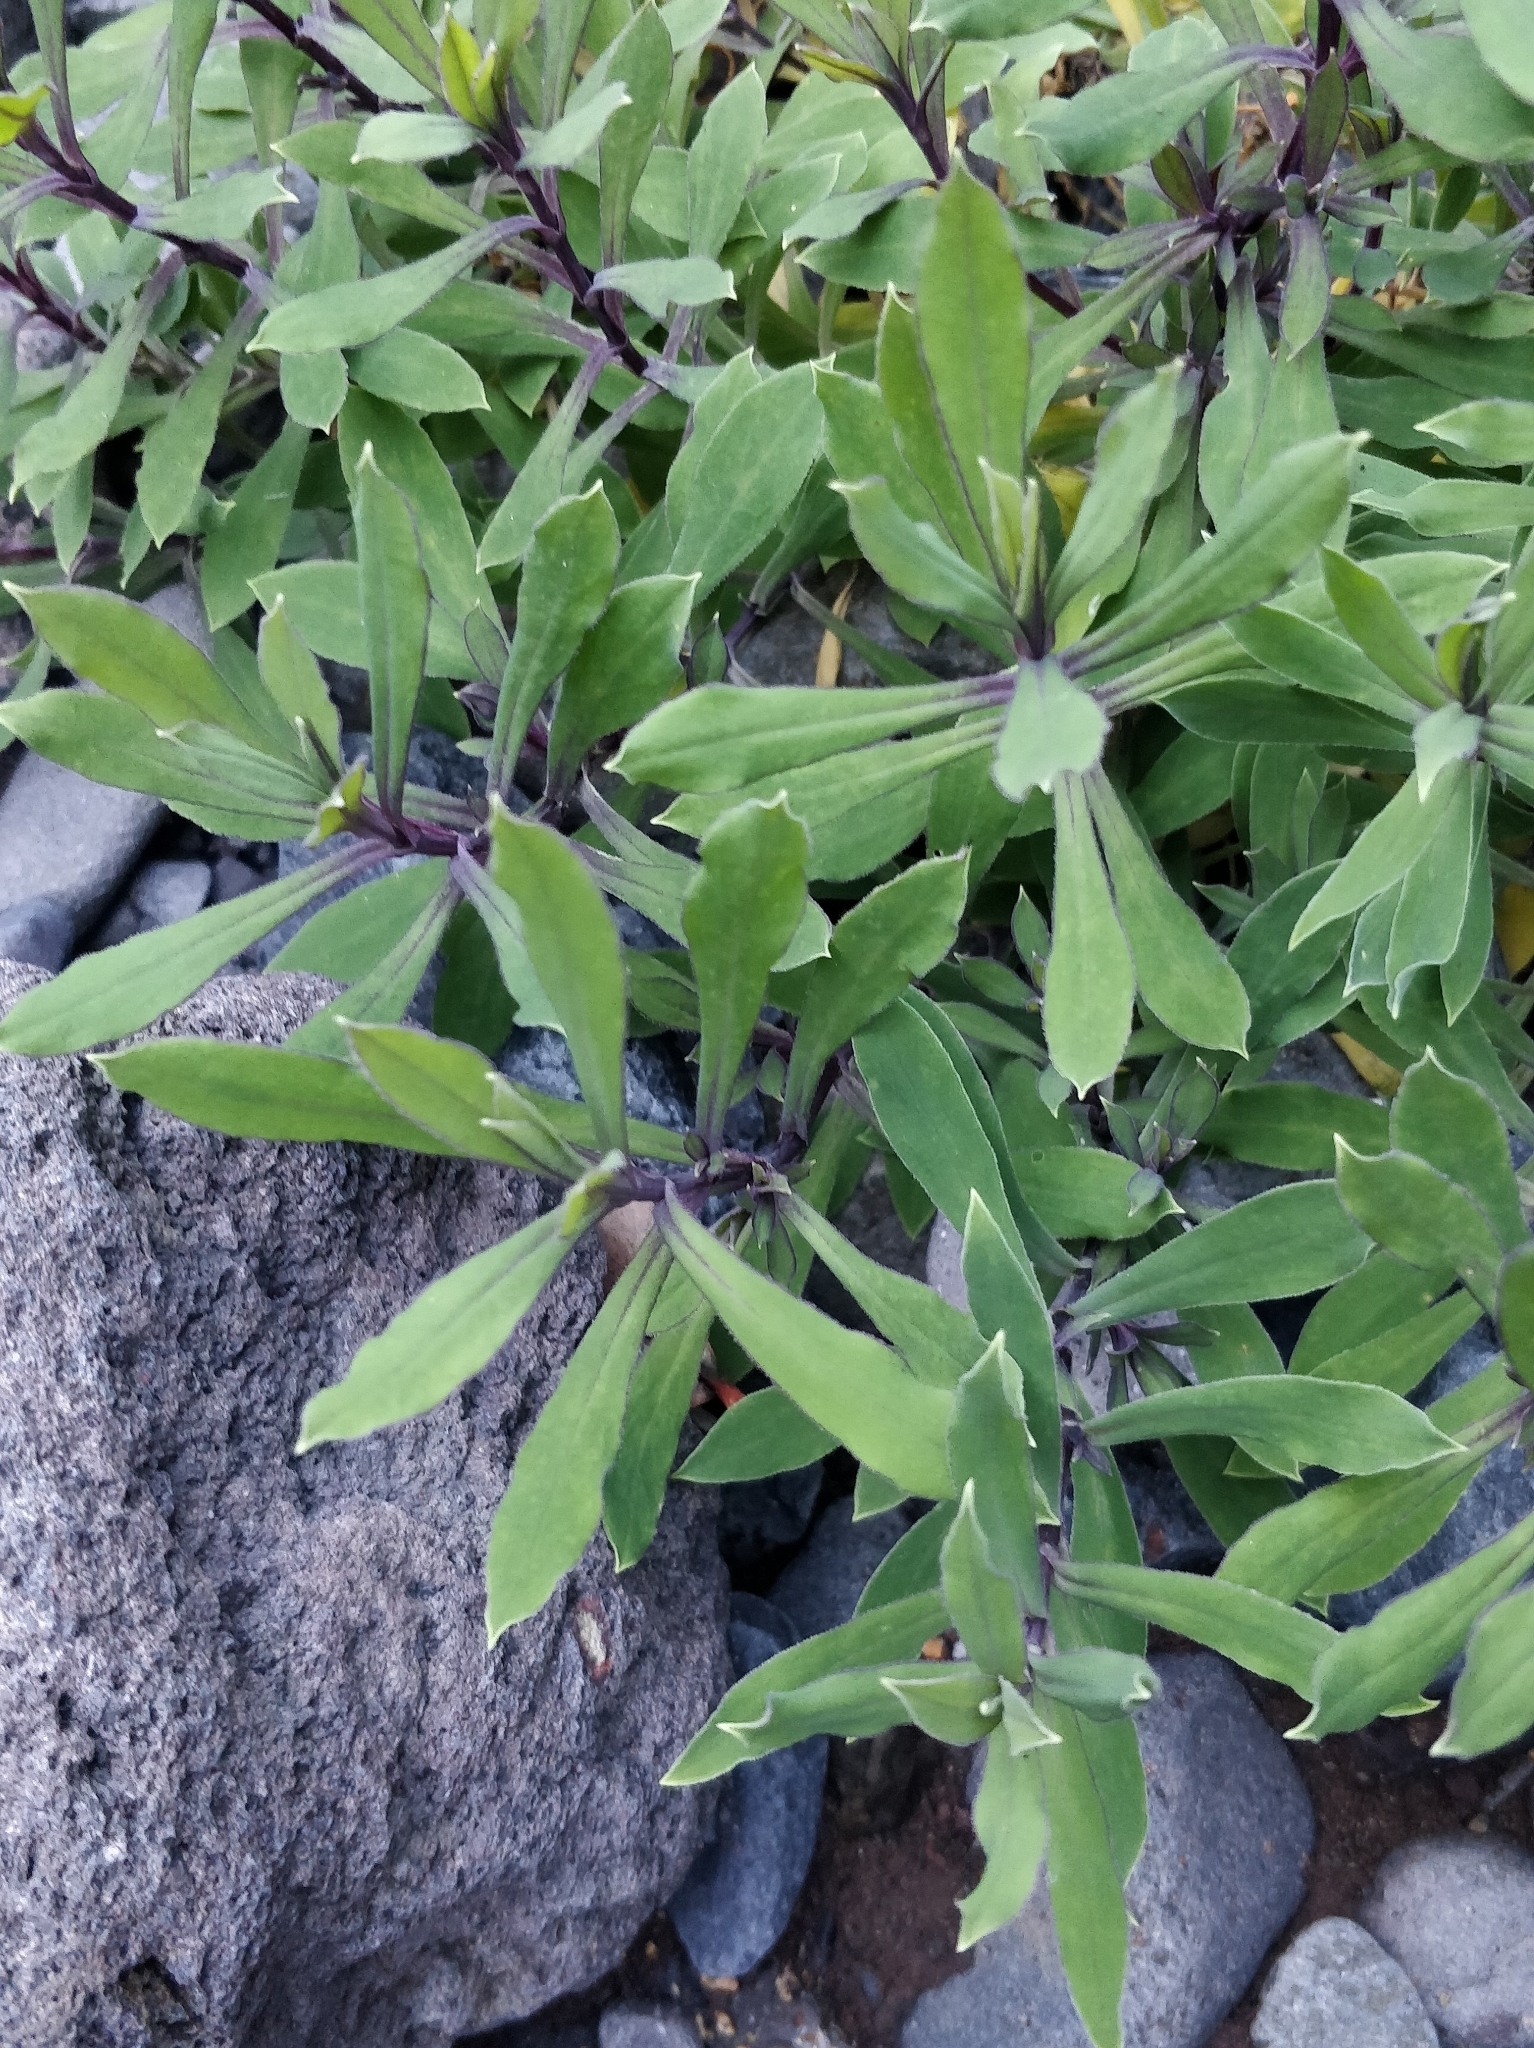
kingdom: Plantae
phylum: Tracheophyta
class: Magnoliopsida
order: Caryophyllales
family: Caryophyllaceae
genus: Silene
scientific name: Silene vulgaris
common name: Bladder campion
